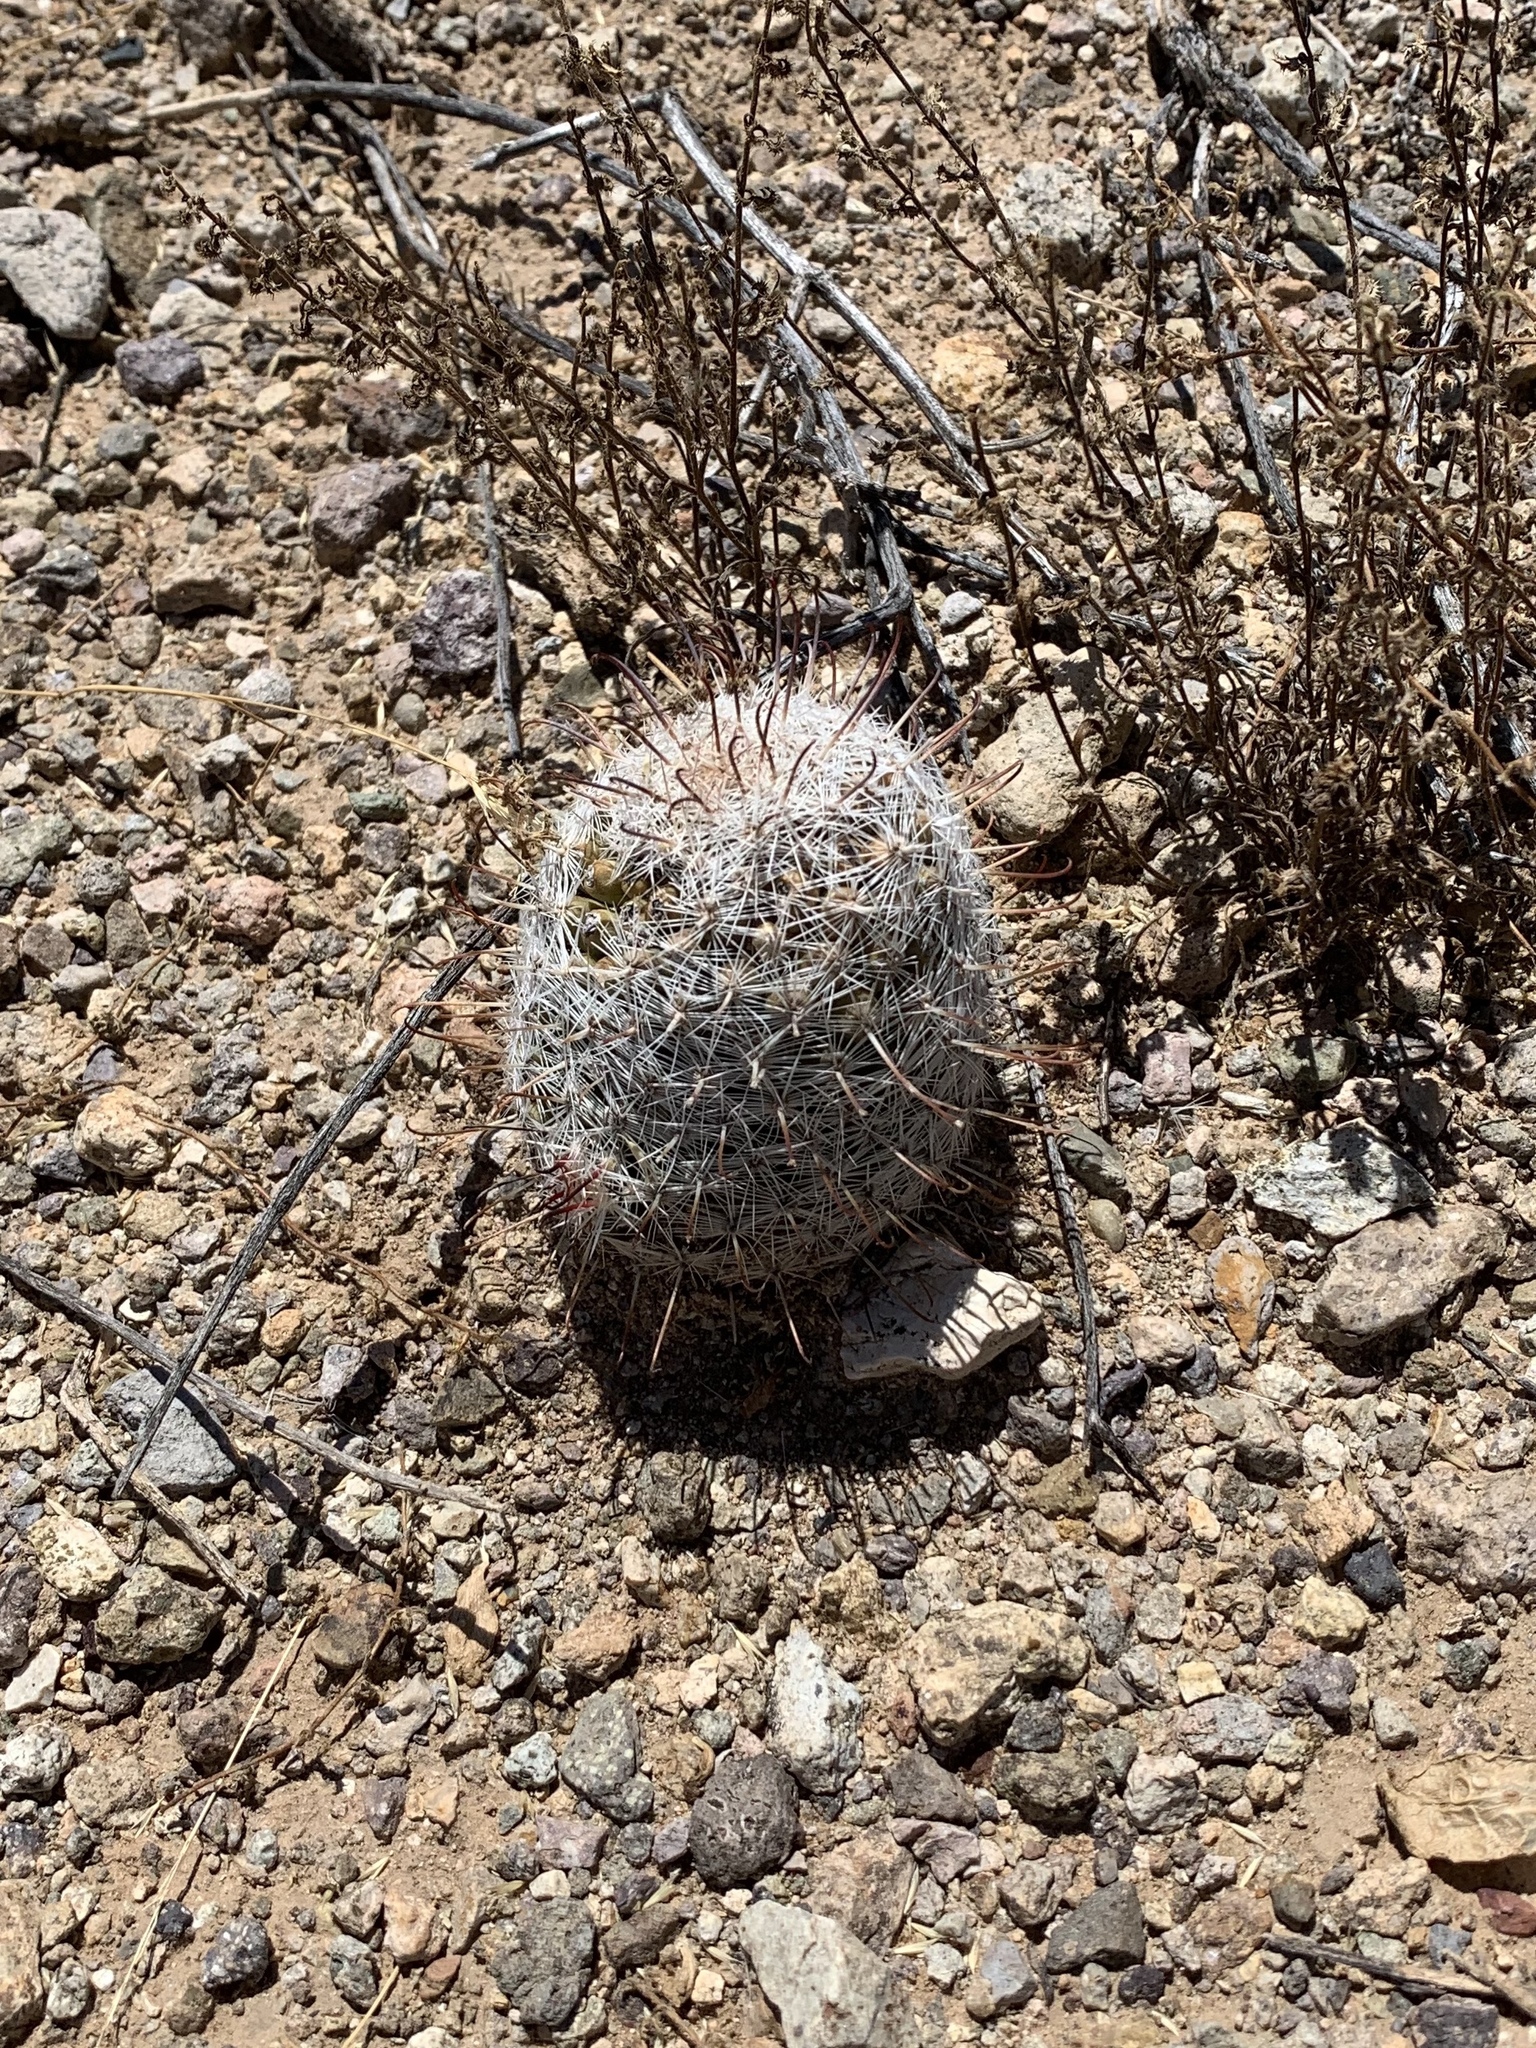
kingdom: Plantae
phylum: Tracheophyta
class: Magnoliopsida
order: Caryophyllales
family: Cactaceae
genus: Cochemiea
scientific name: Cochemiea grahamii
